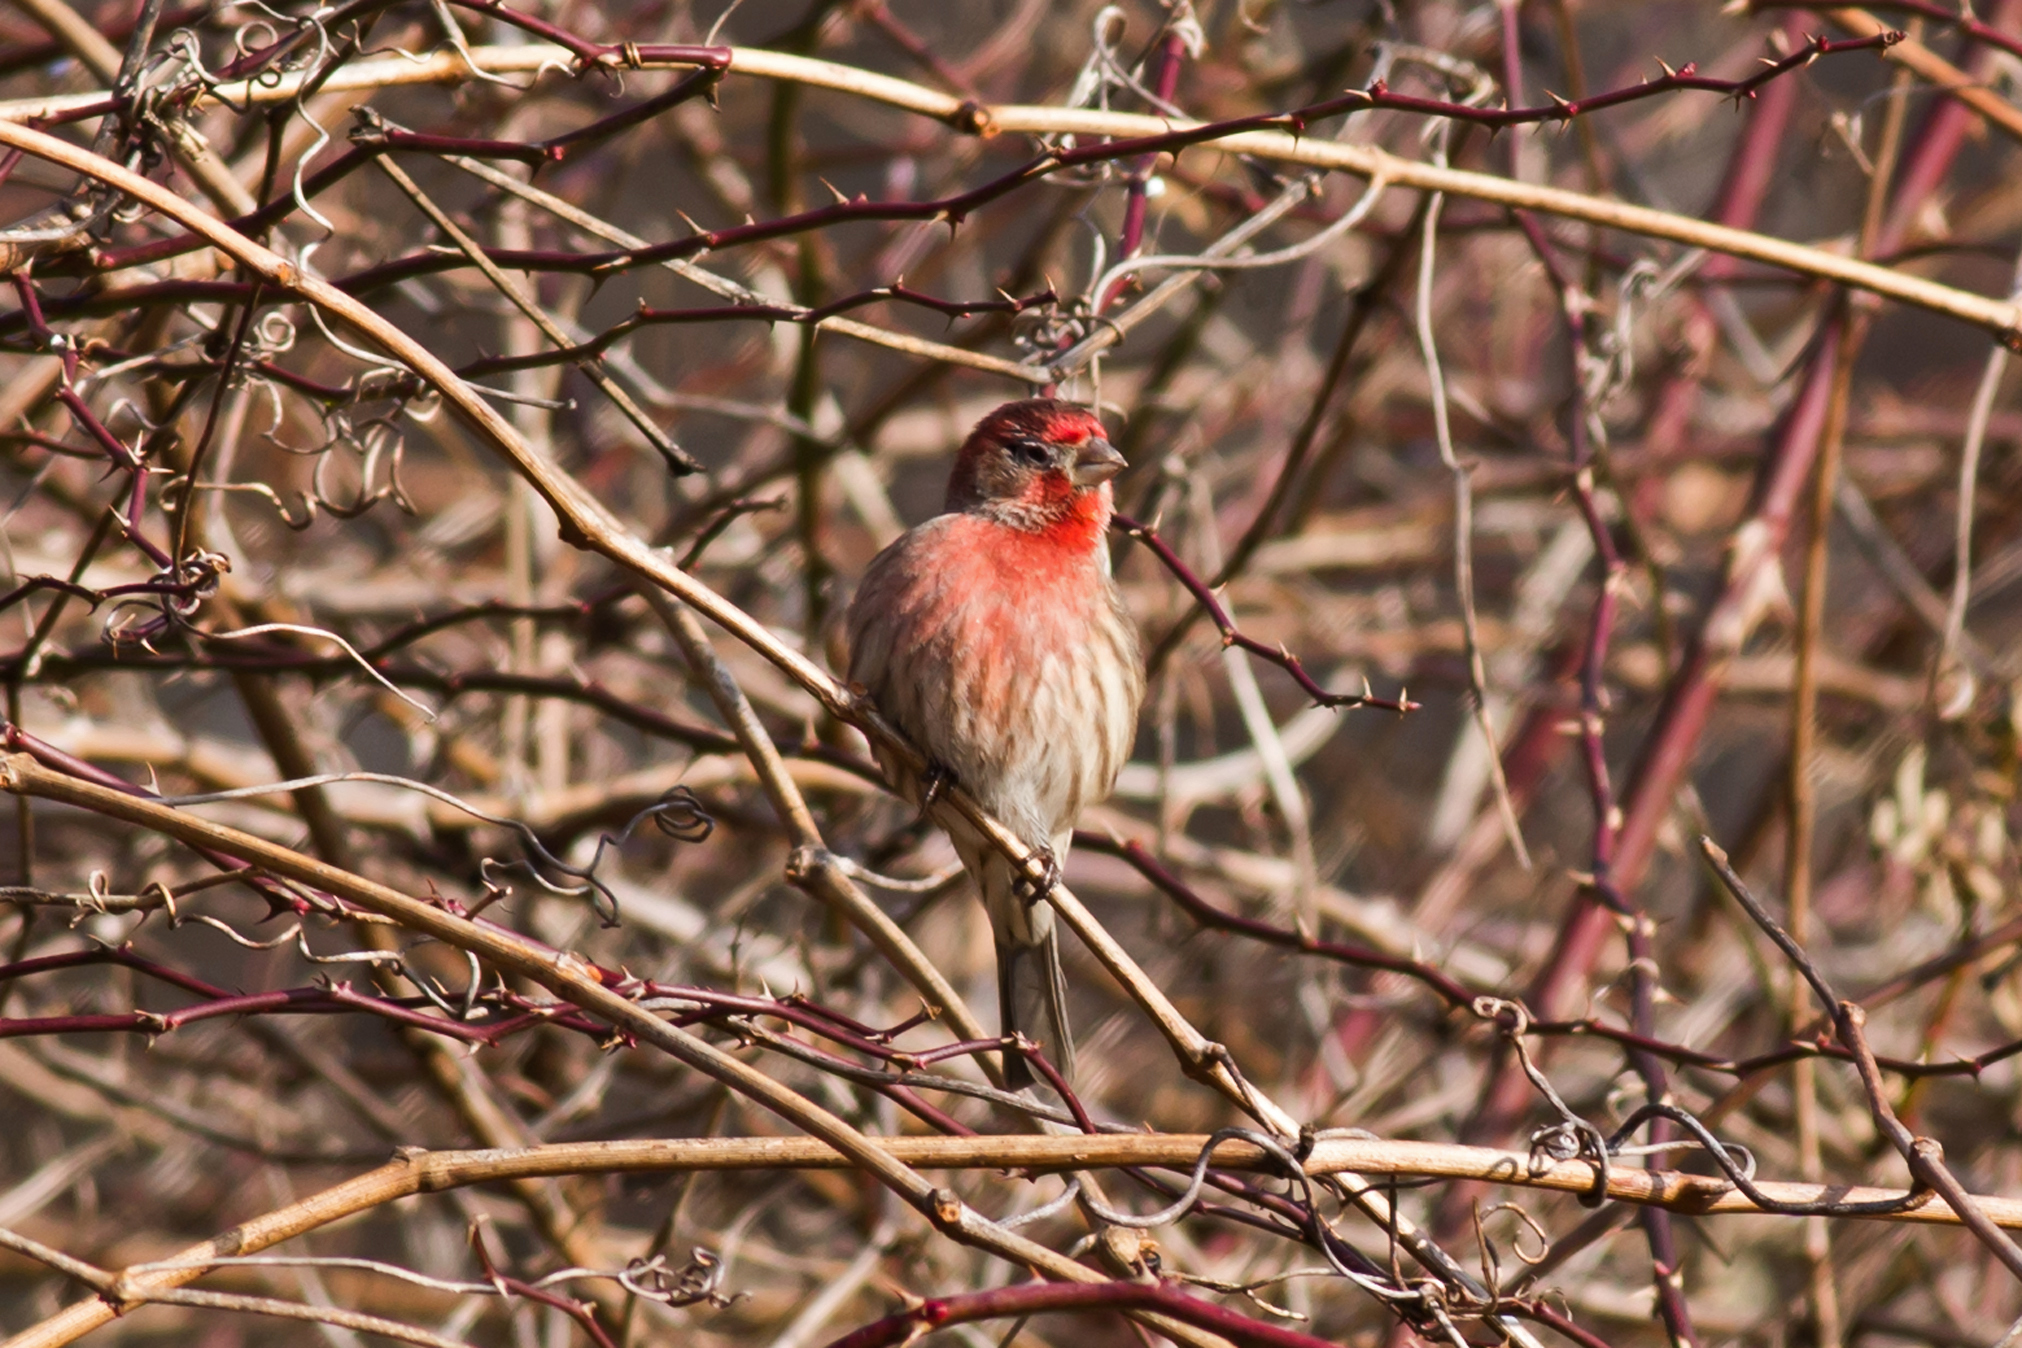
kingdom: Animalia
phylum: Chordata
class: Aves
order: Passeriformes
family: Fringillidae
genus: Haemorhous
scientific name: Haemorhous mexicanus
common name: House finch
